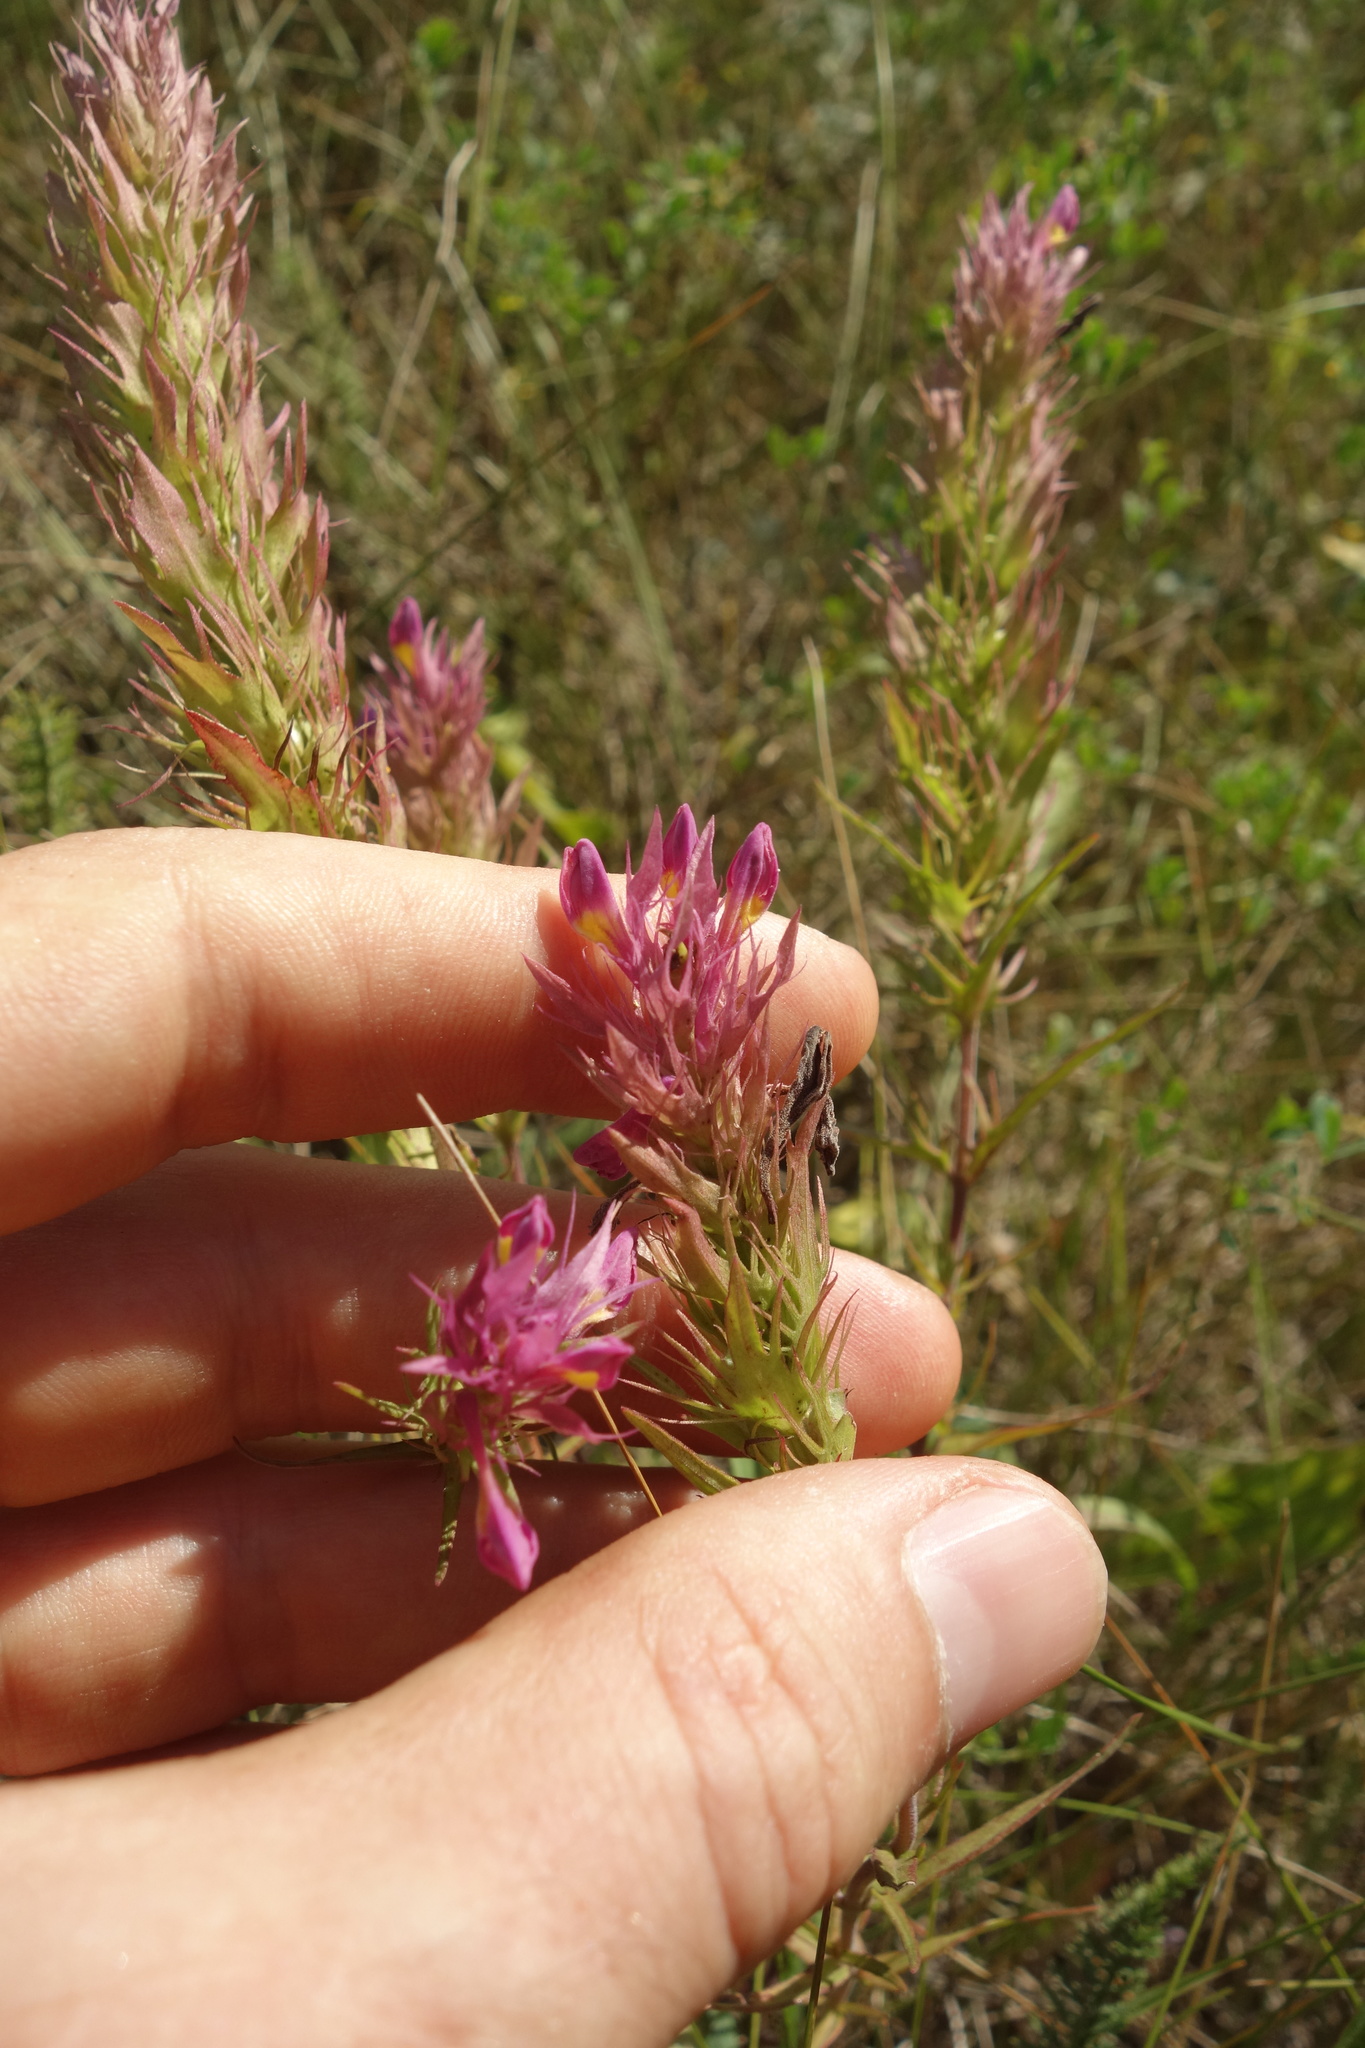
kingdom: Plantae
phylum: Tracheophyta
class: Magnoliopsida
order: Lamiales
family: Orobanchaceae
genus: Melampyrum
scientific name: Melampyrum arvense
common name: Field cow-wheat
